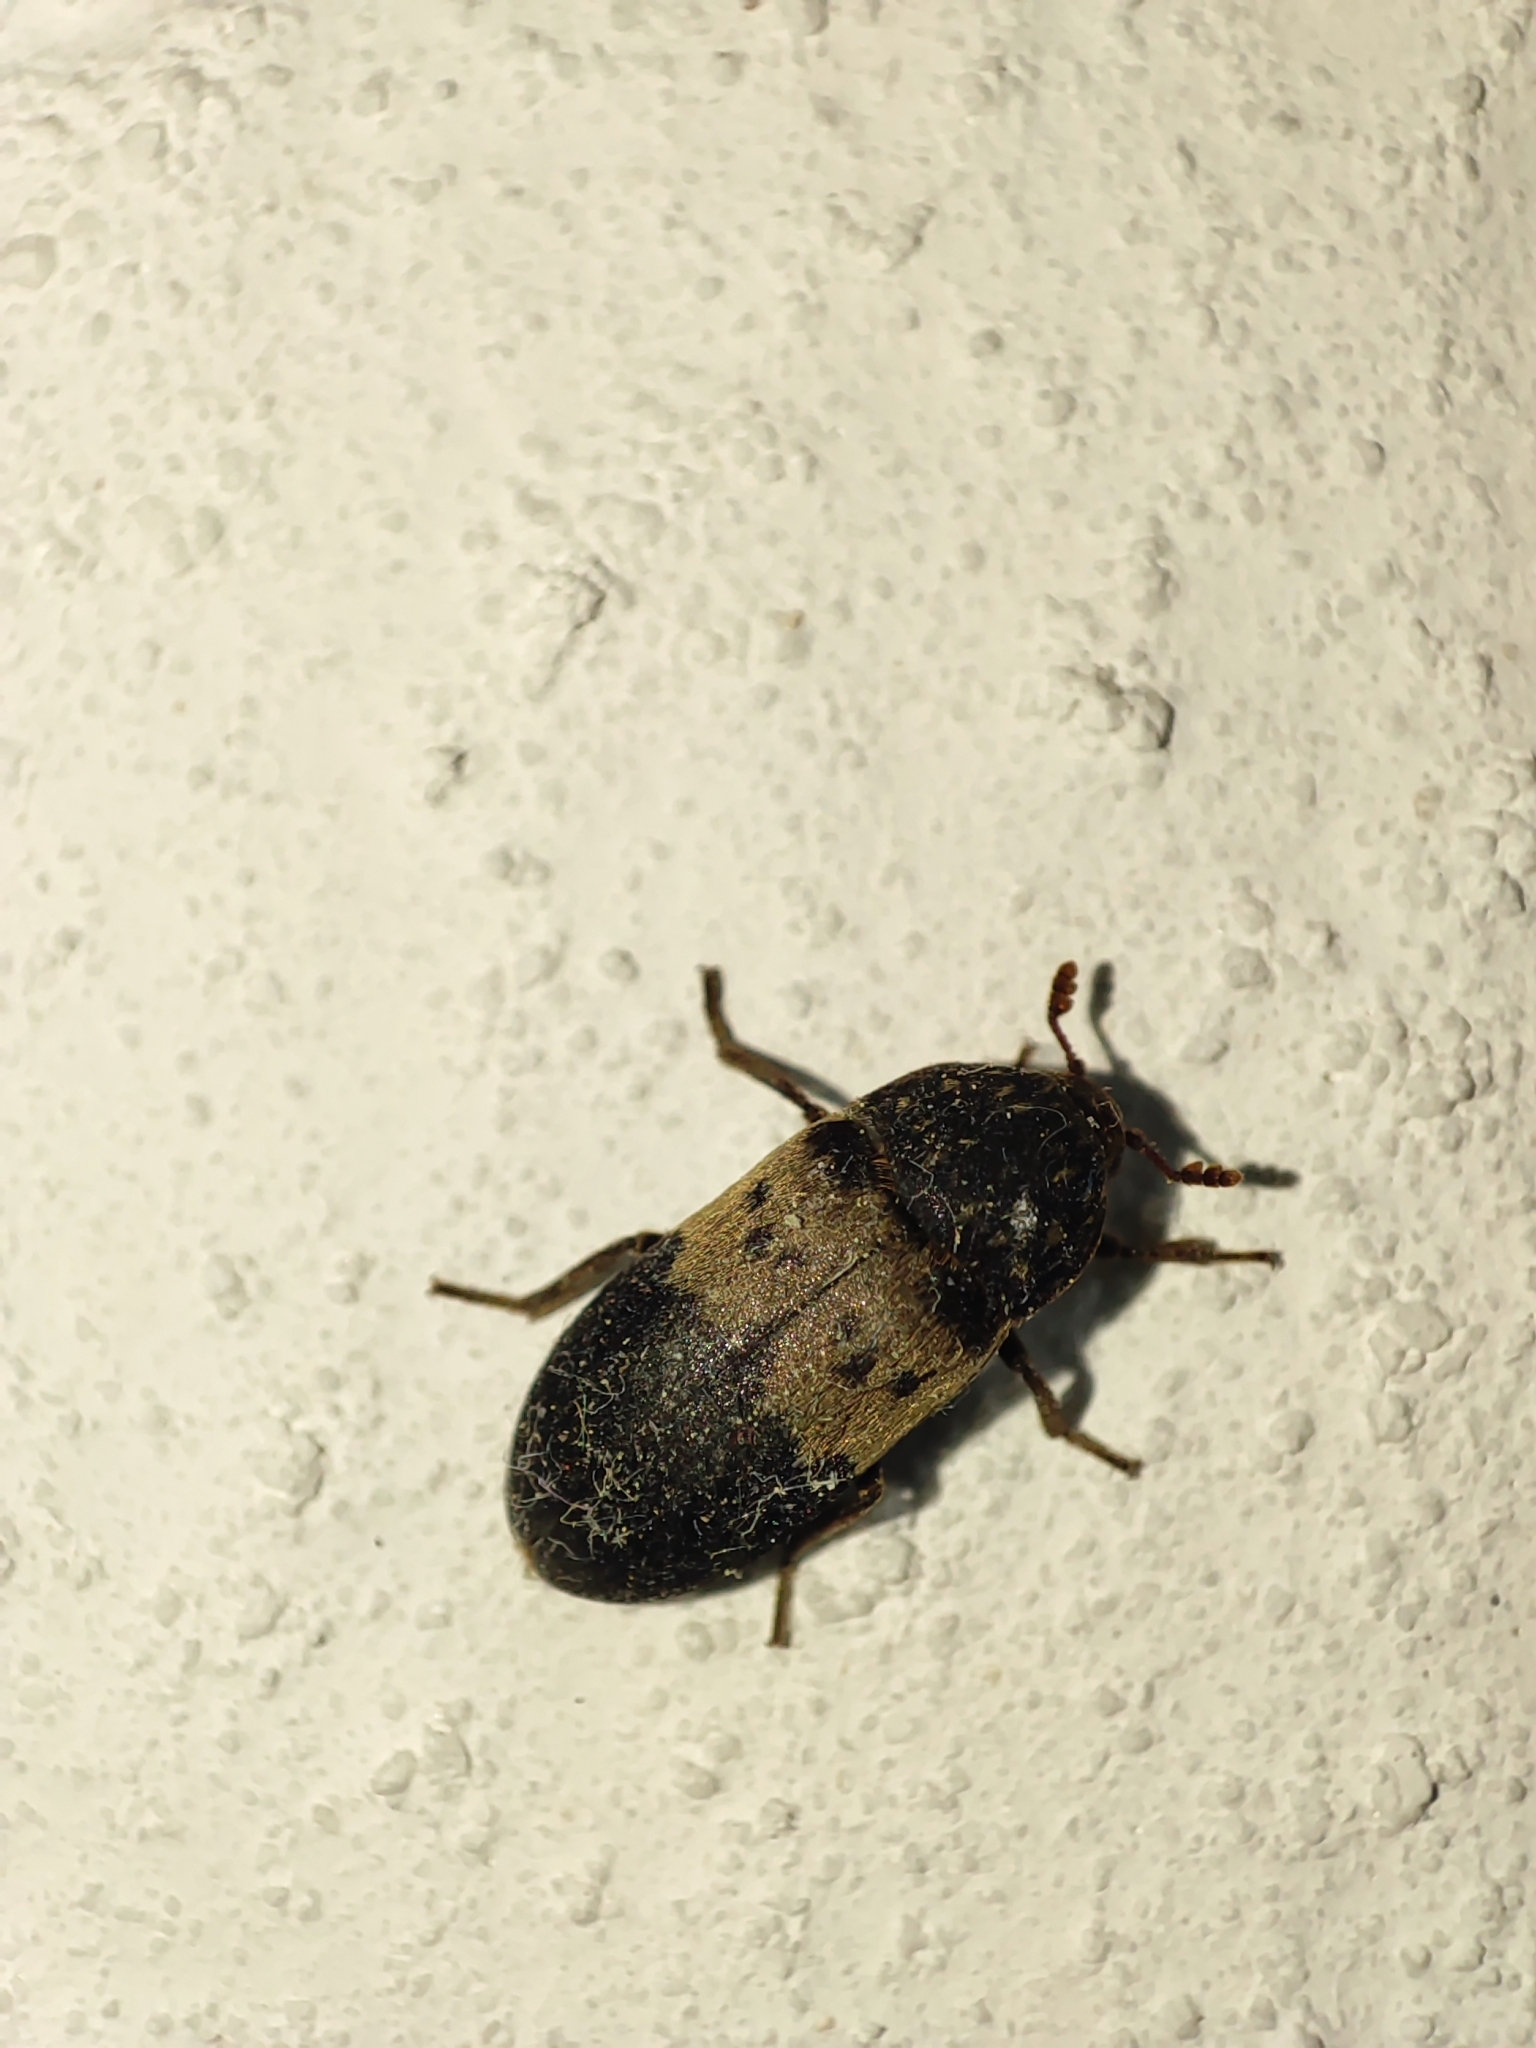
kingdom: Animalia
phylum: Arthropoda
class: Insecta
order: Coleoptera
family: Dermestidae
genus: Dermestes
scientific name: Dermestes lardarius
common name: Larder beetle
